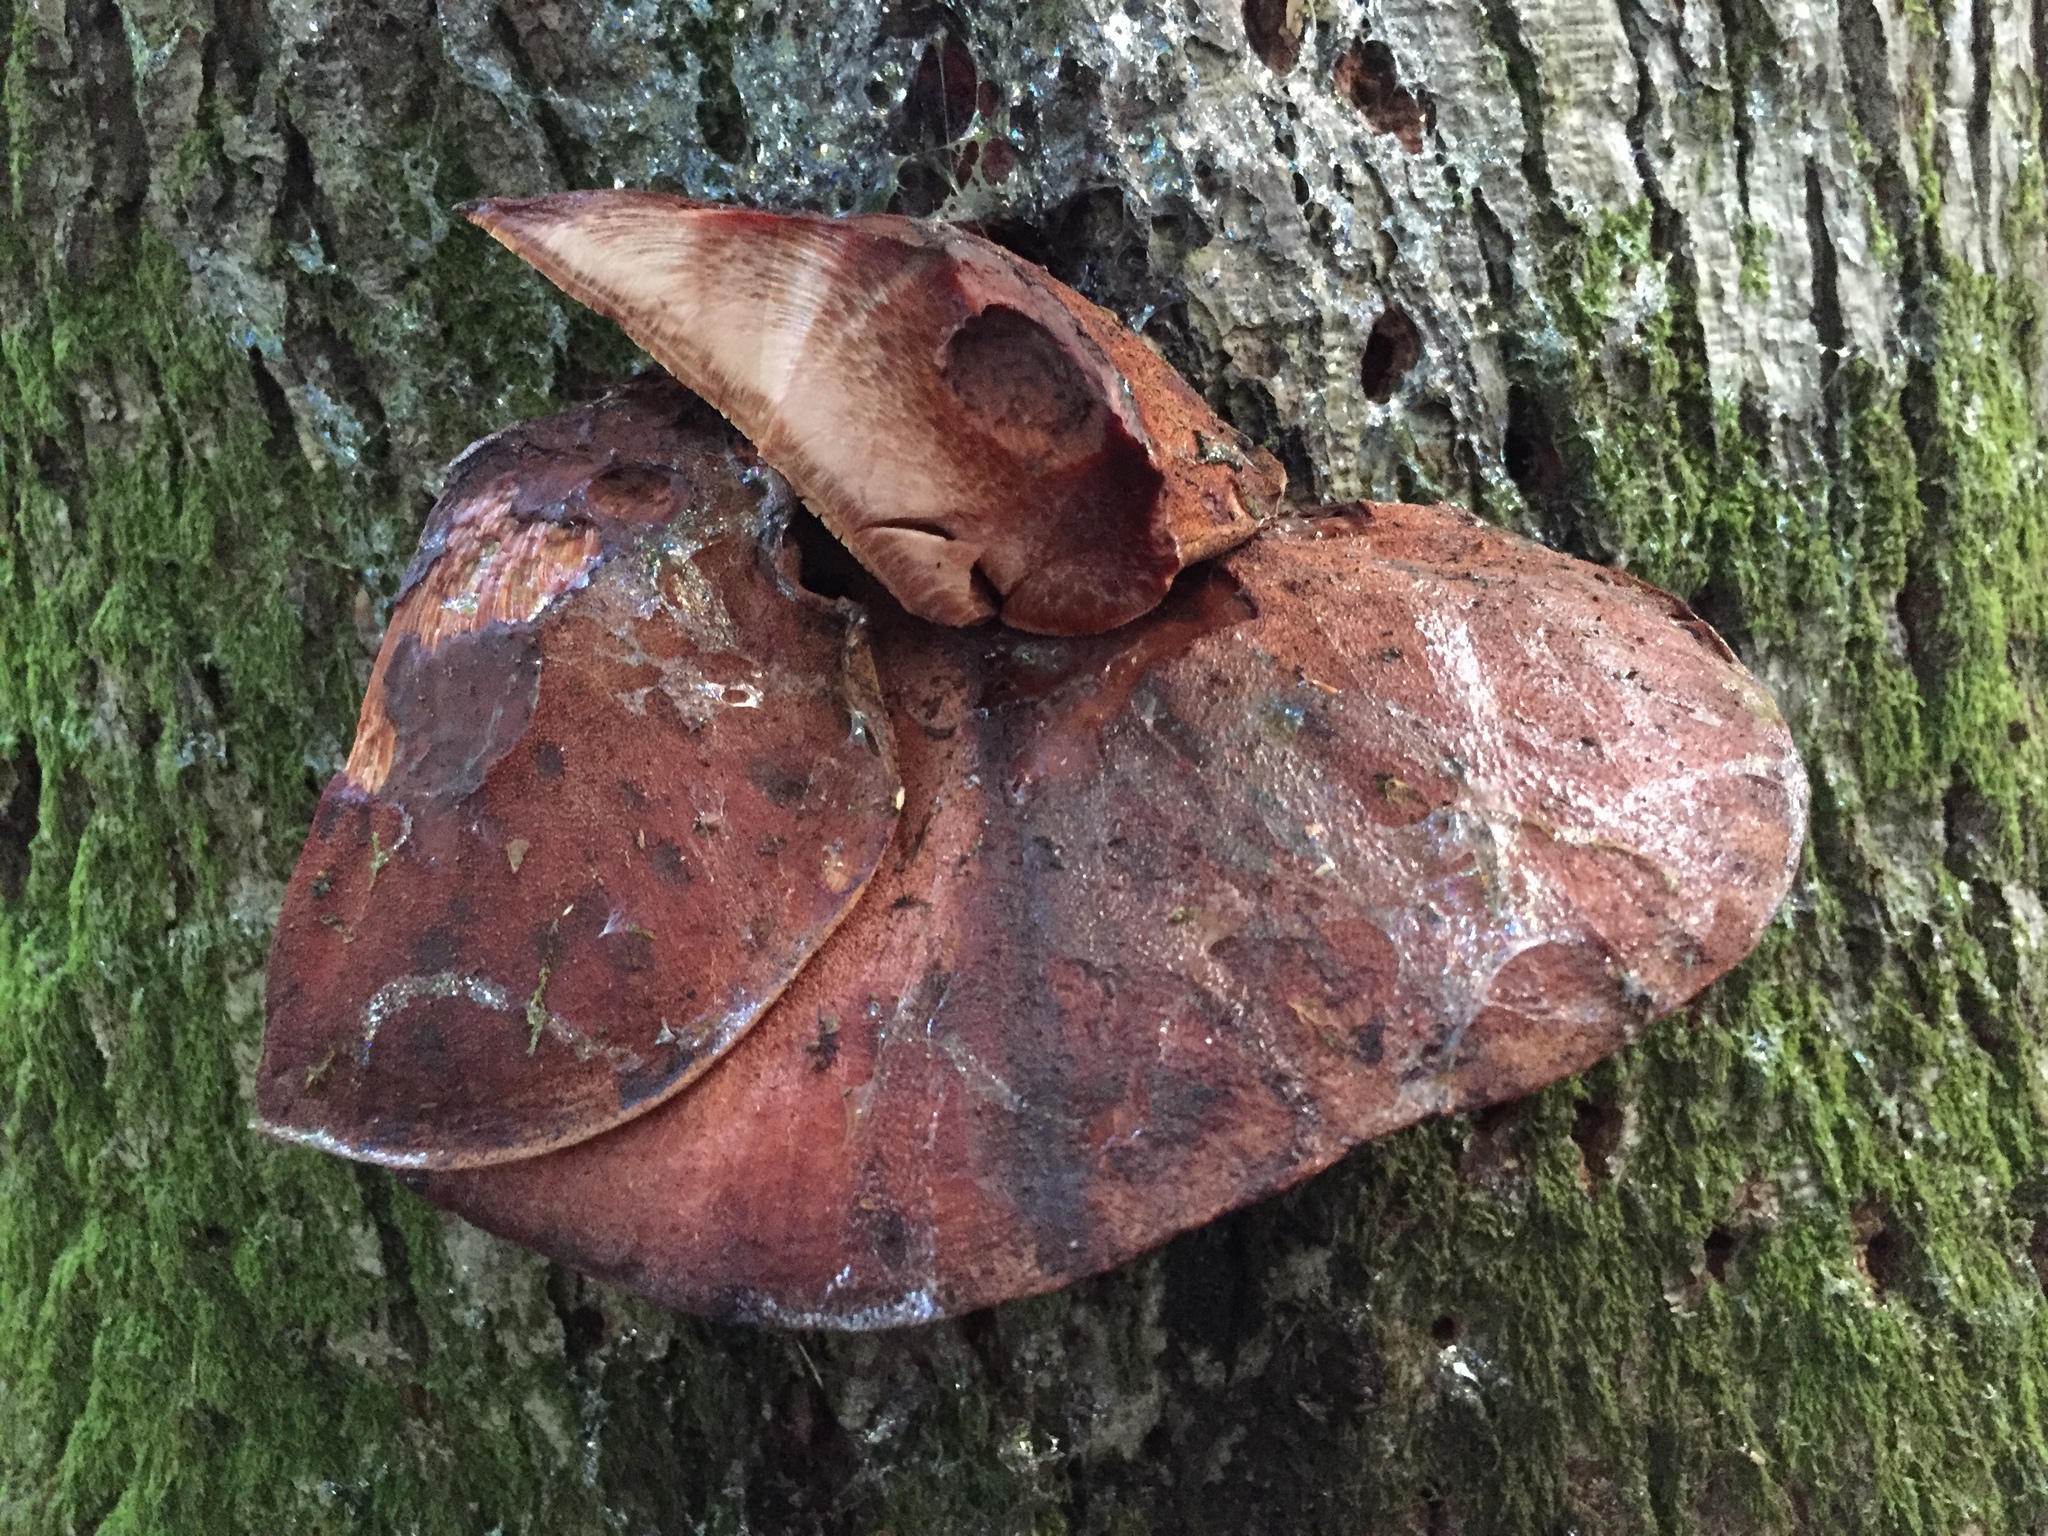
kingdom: Fungi
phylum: Basidiomycota
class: Agaricomycetes
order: Agaricales
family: Fistulinaceae
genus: Fistulina
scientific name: Fistulina hepatica
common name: Beef-steak fungus
